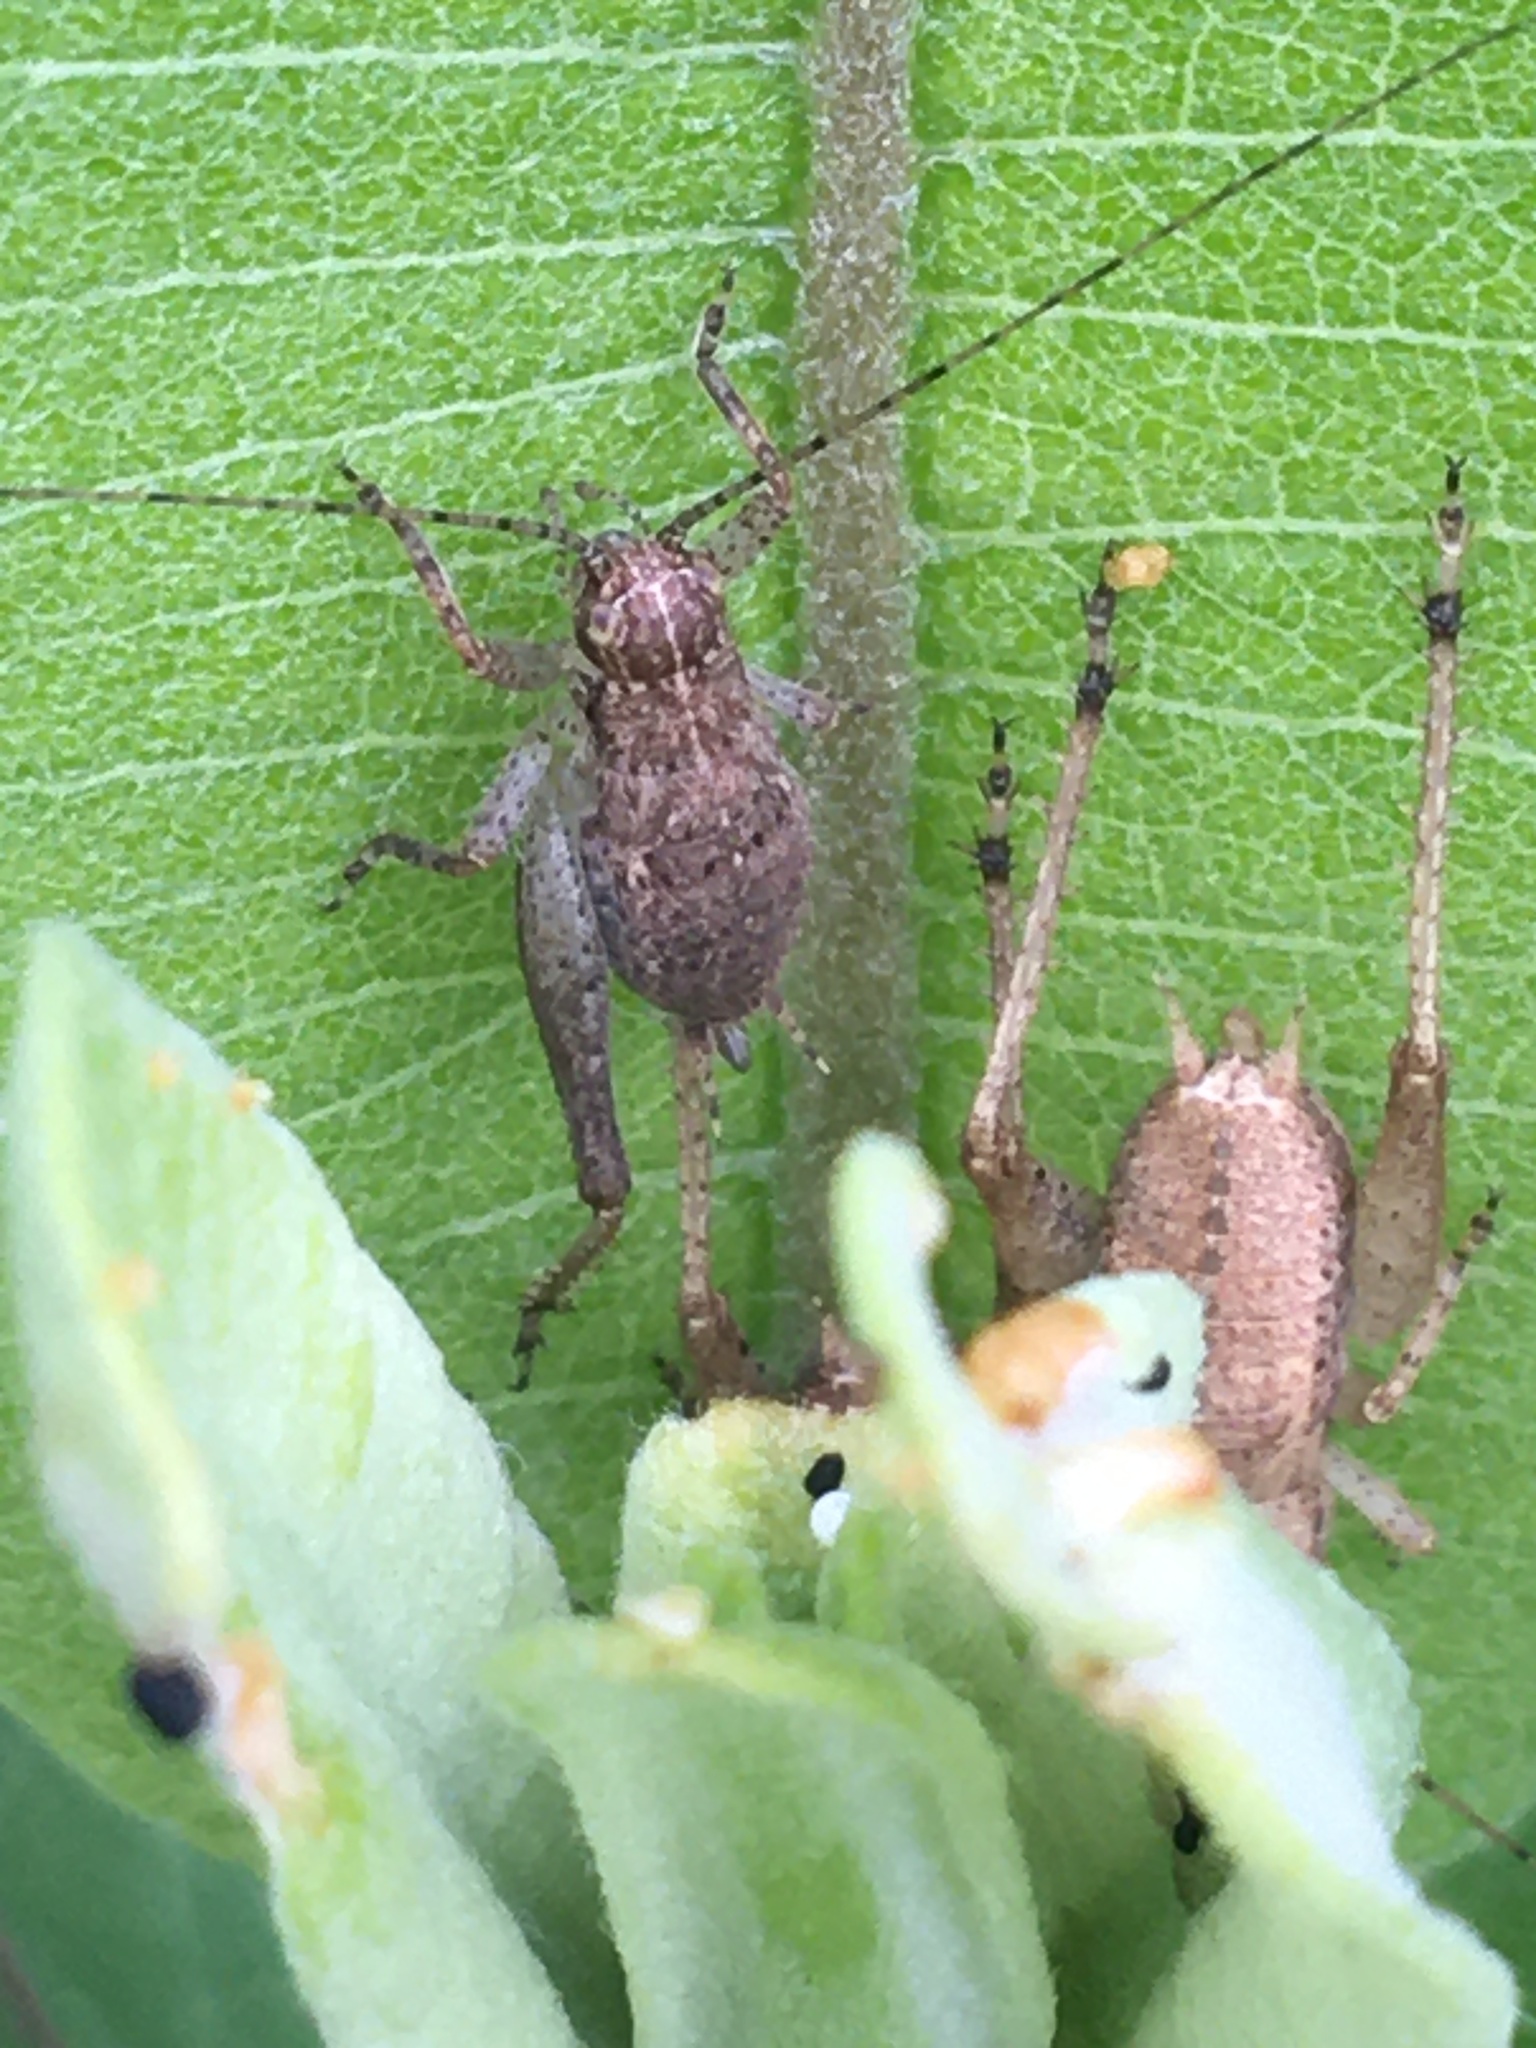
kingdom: Animalia
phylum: Arthropoda
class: Insecta
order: Orthoptera
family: Gryllidae
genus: Hapithus
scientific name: Hapithus agitator
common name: Restless bush cricket
